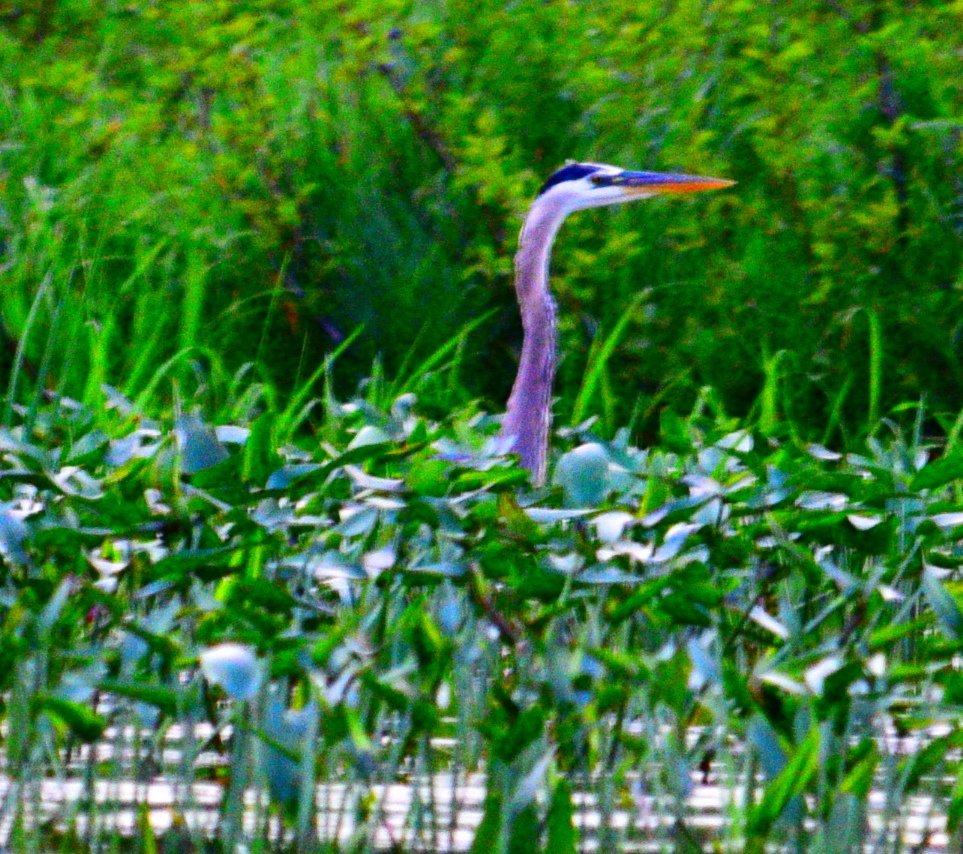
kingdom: Animalia
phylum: Chordata
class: Aves
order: Pelecaniformes
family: Ardeidae
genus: Ardea
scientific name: Ardea herodias
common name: Great blue heron
